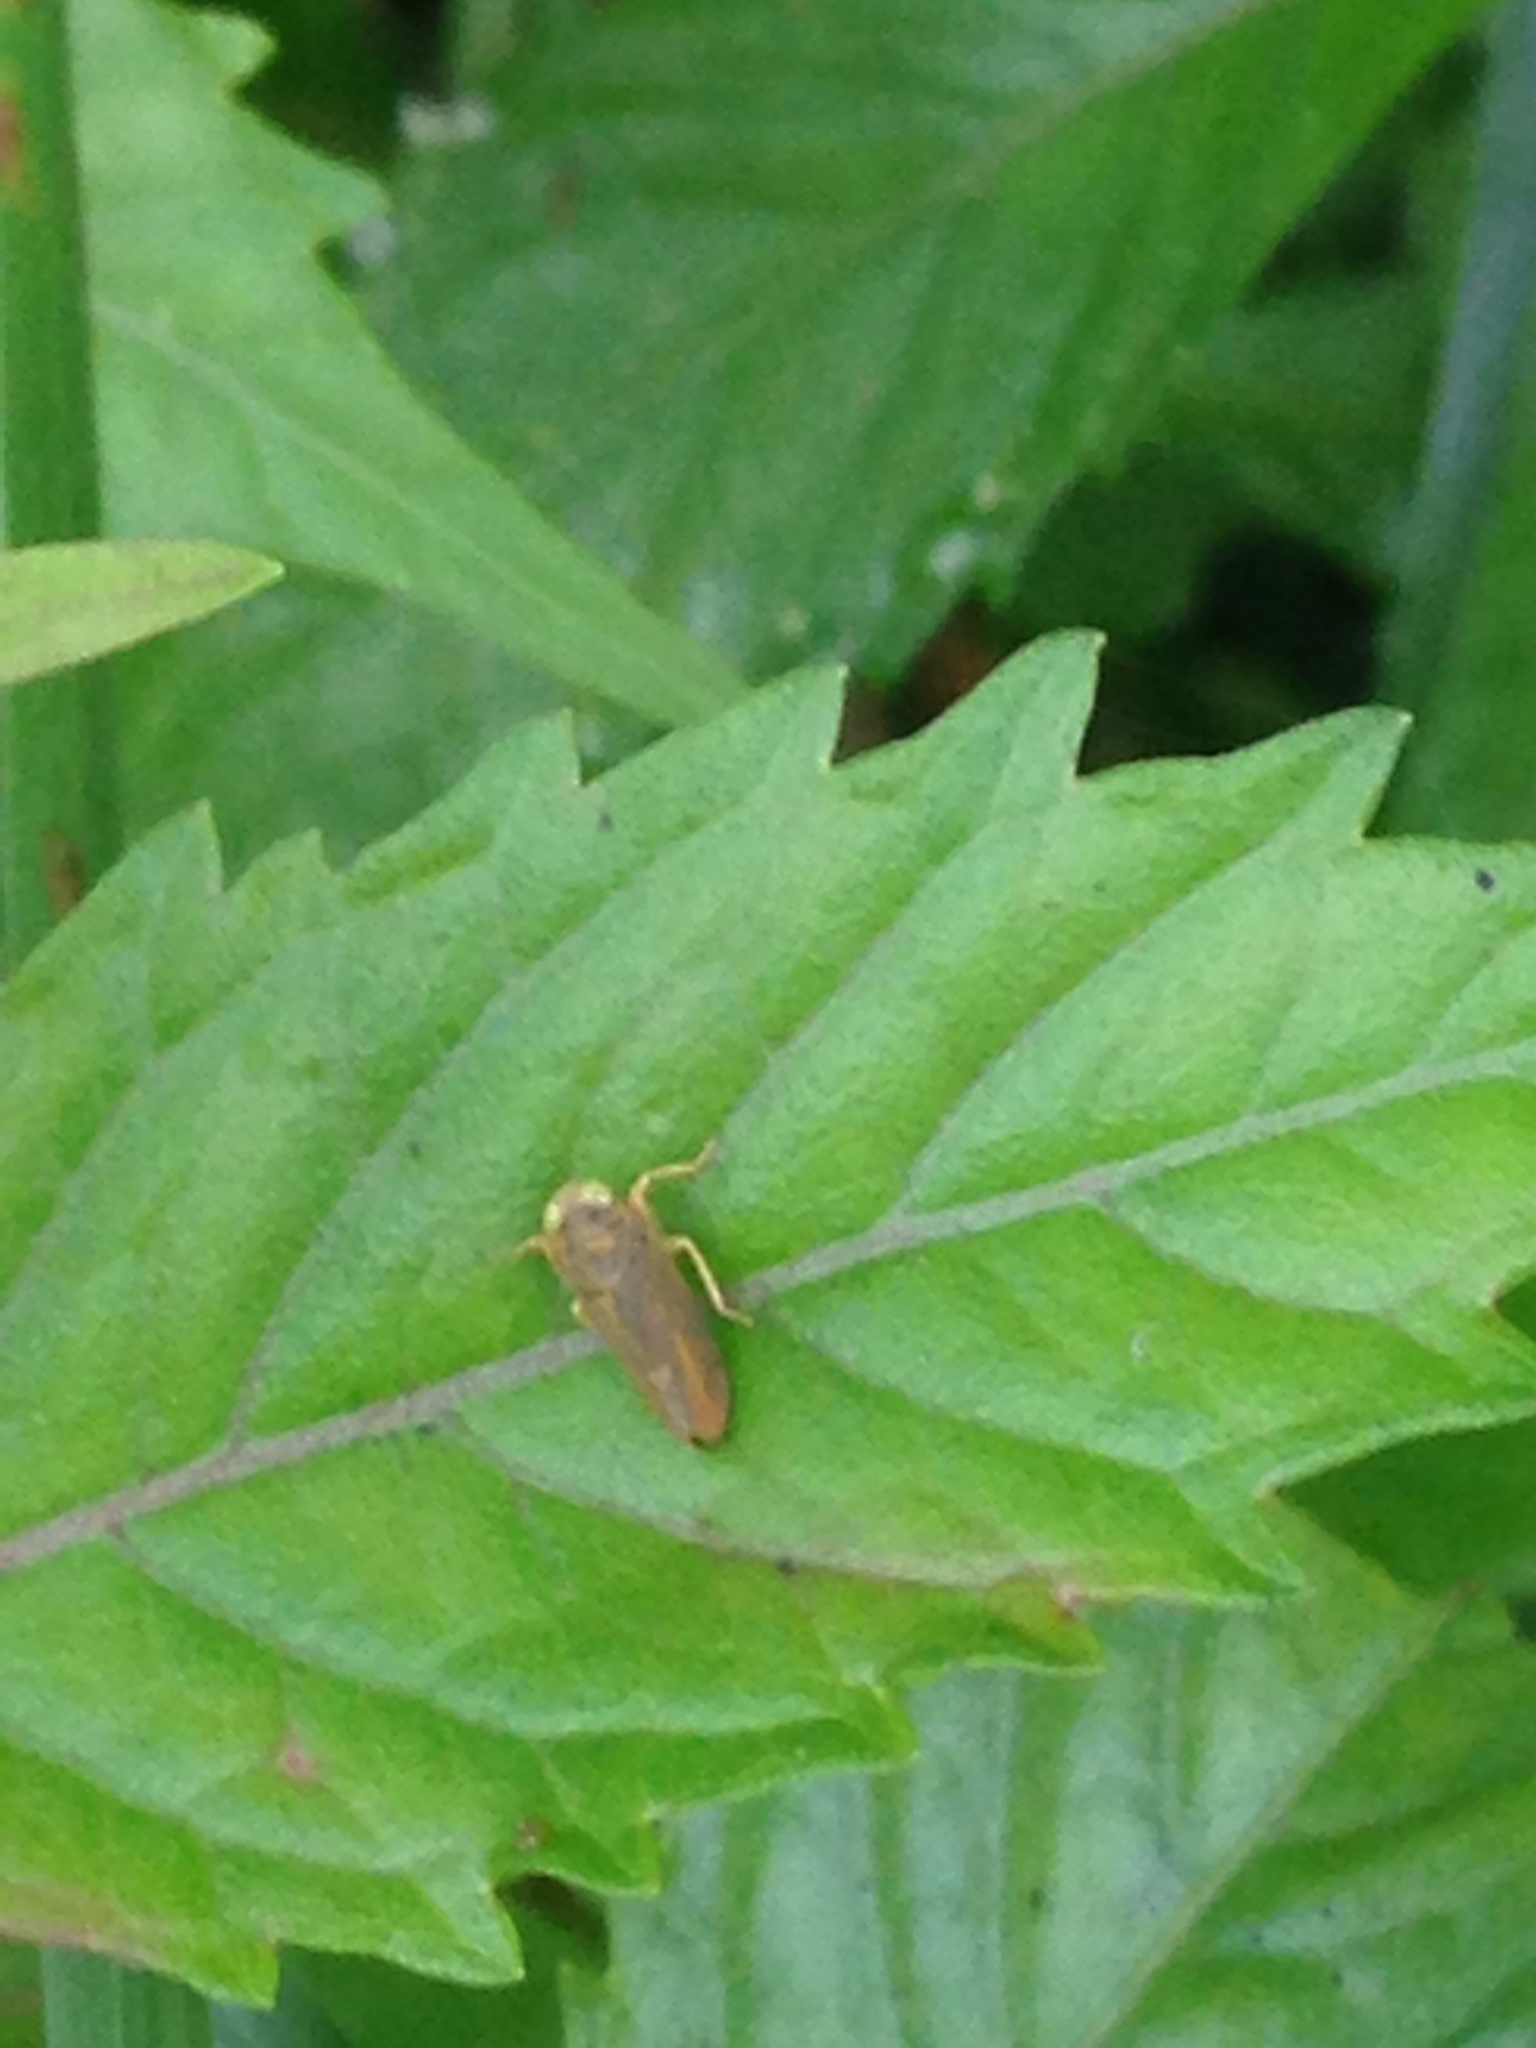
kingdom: Animalia
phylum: Arthropoda
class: Insecta
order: Hemiptera
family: Cicadellidae
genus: Jikradia
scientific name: Jikradia olitoria
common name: Coppery leafhopper
